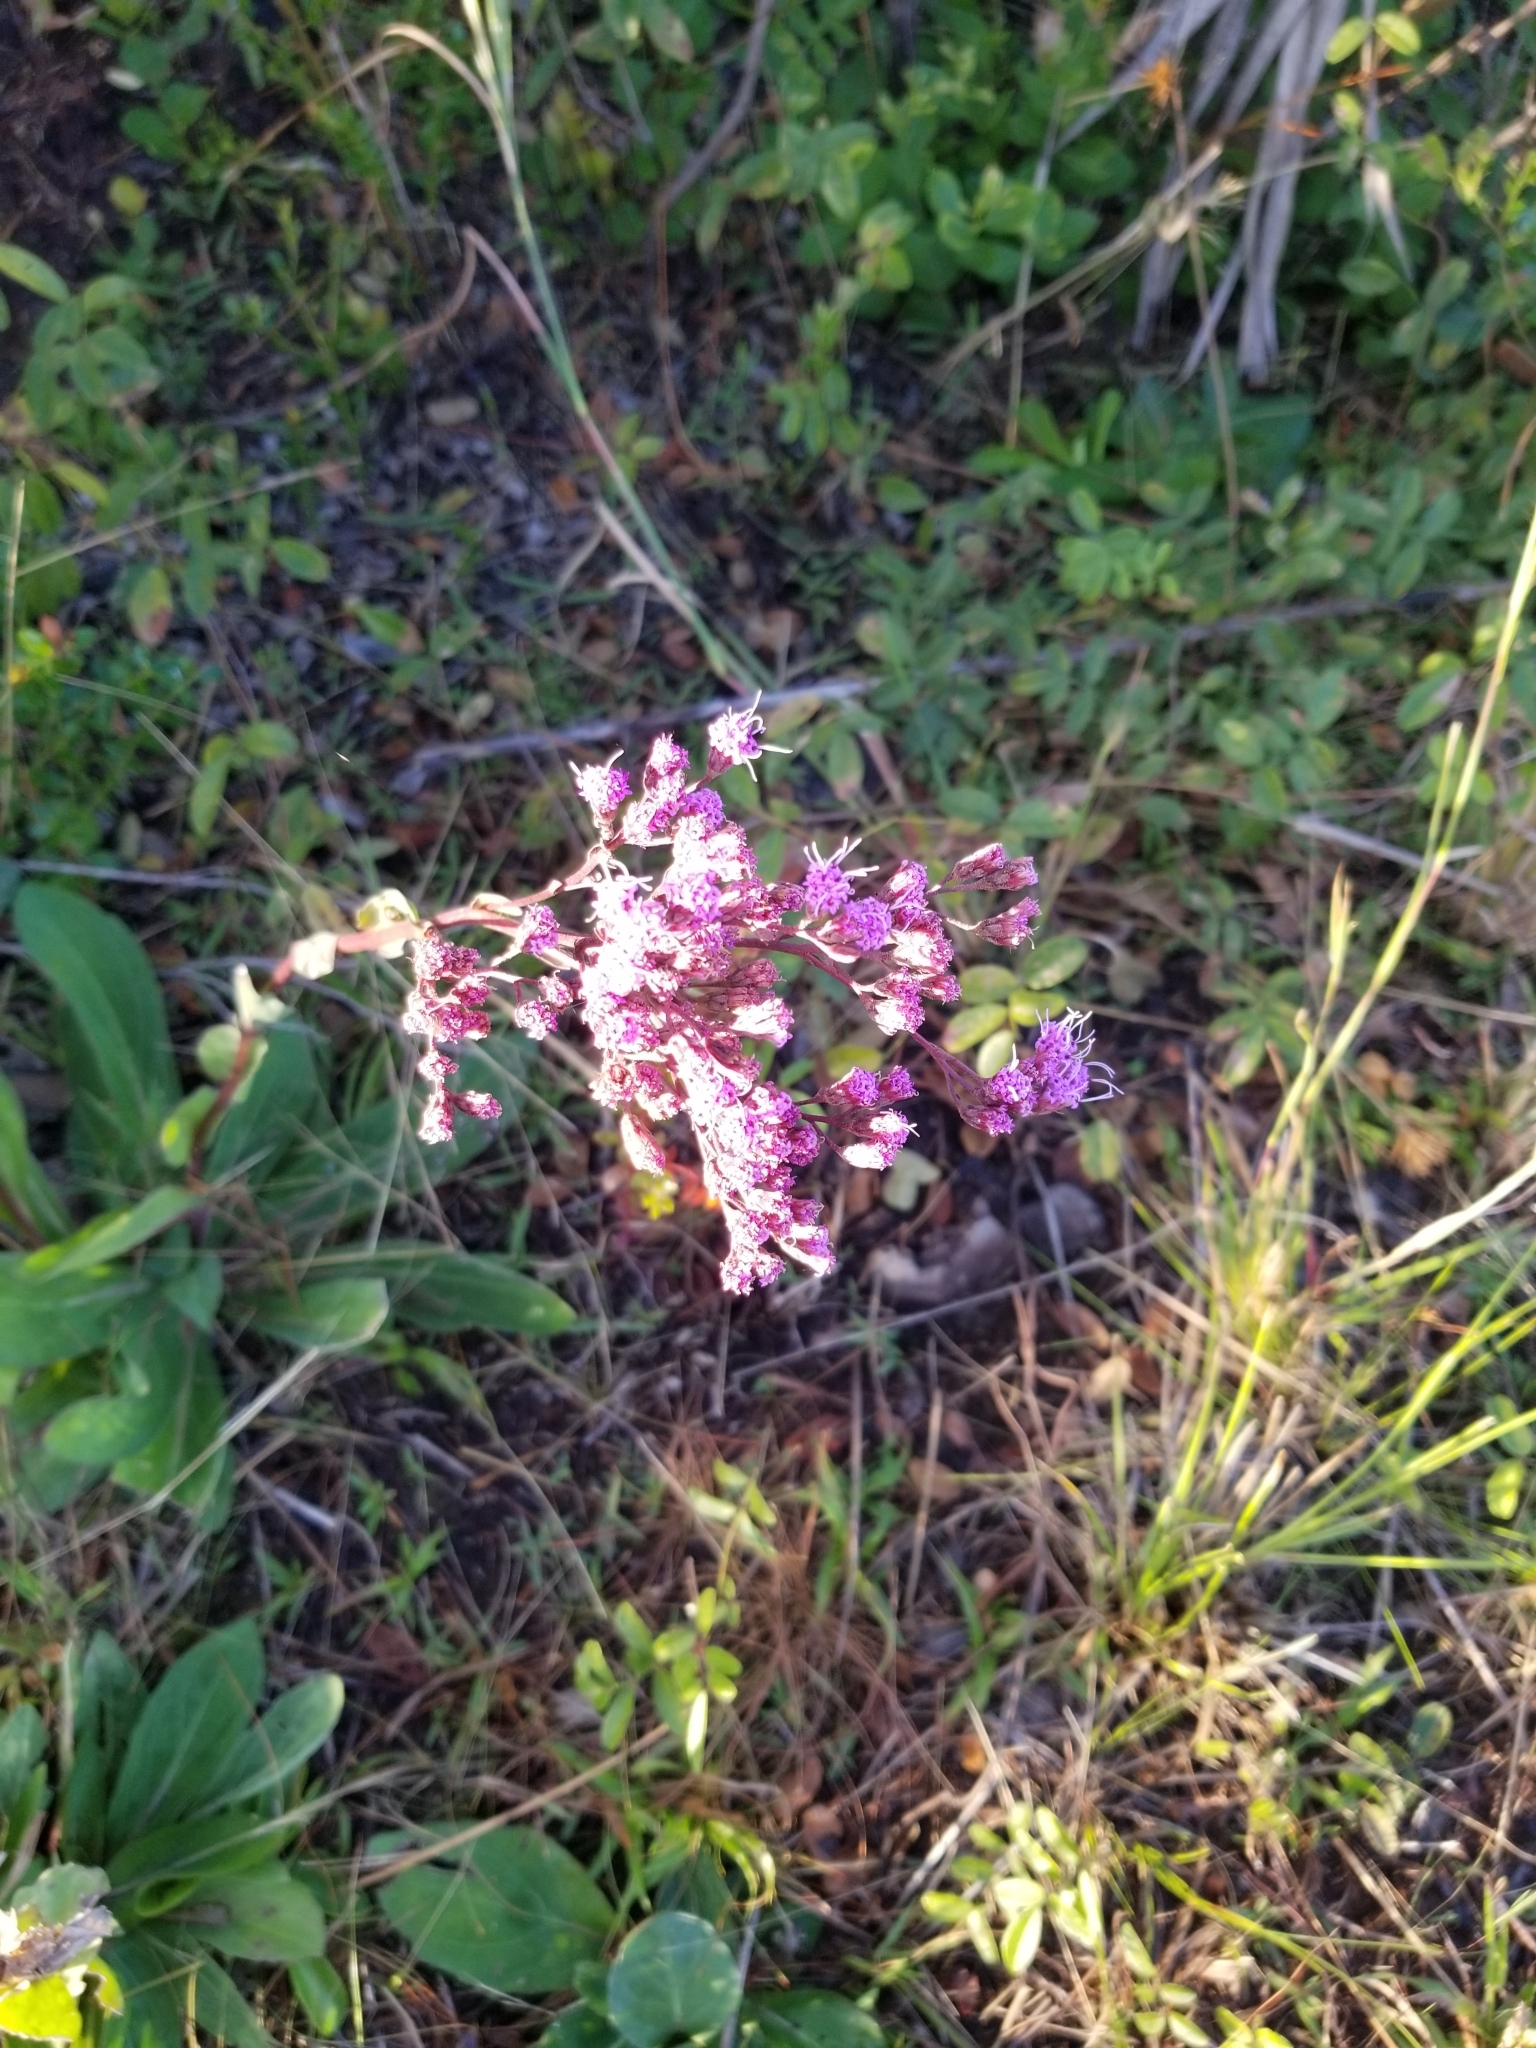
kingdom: Plantae
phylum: Tracheophyta
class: Magnoliopsida
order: Asterales
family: Asteraceae
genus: Carphephorus
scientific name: Carphephorus odoratissimus
